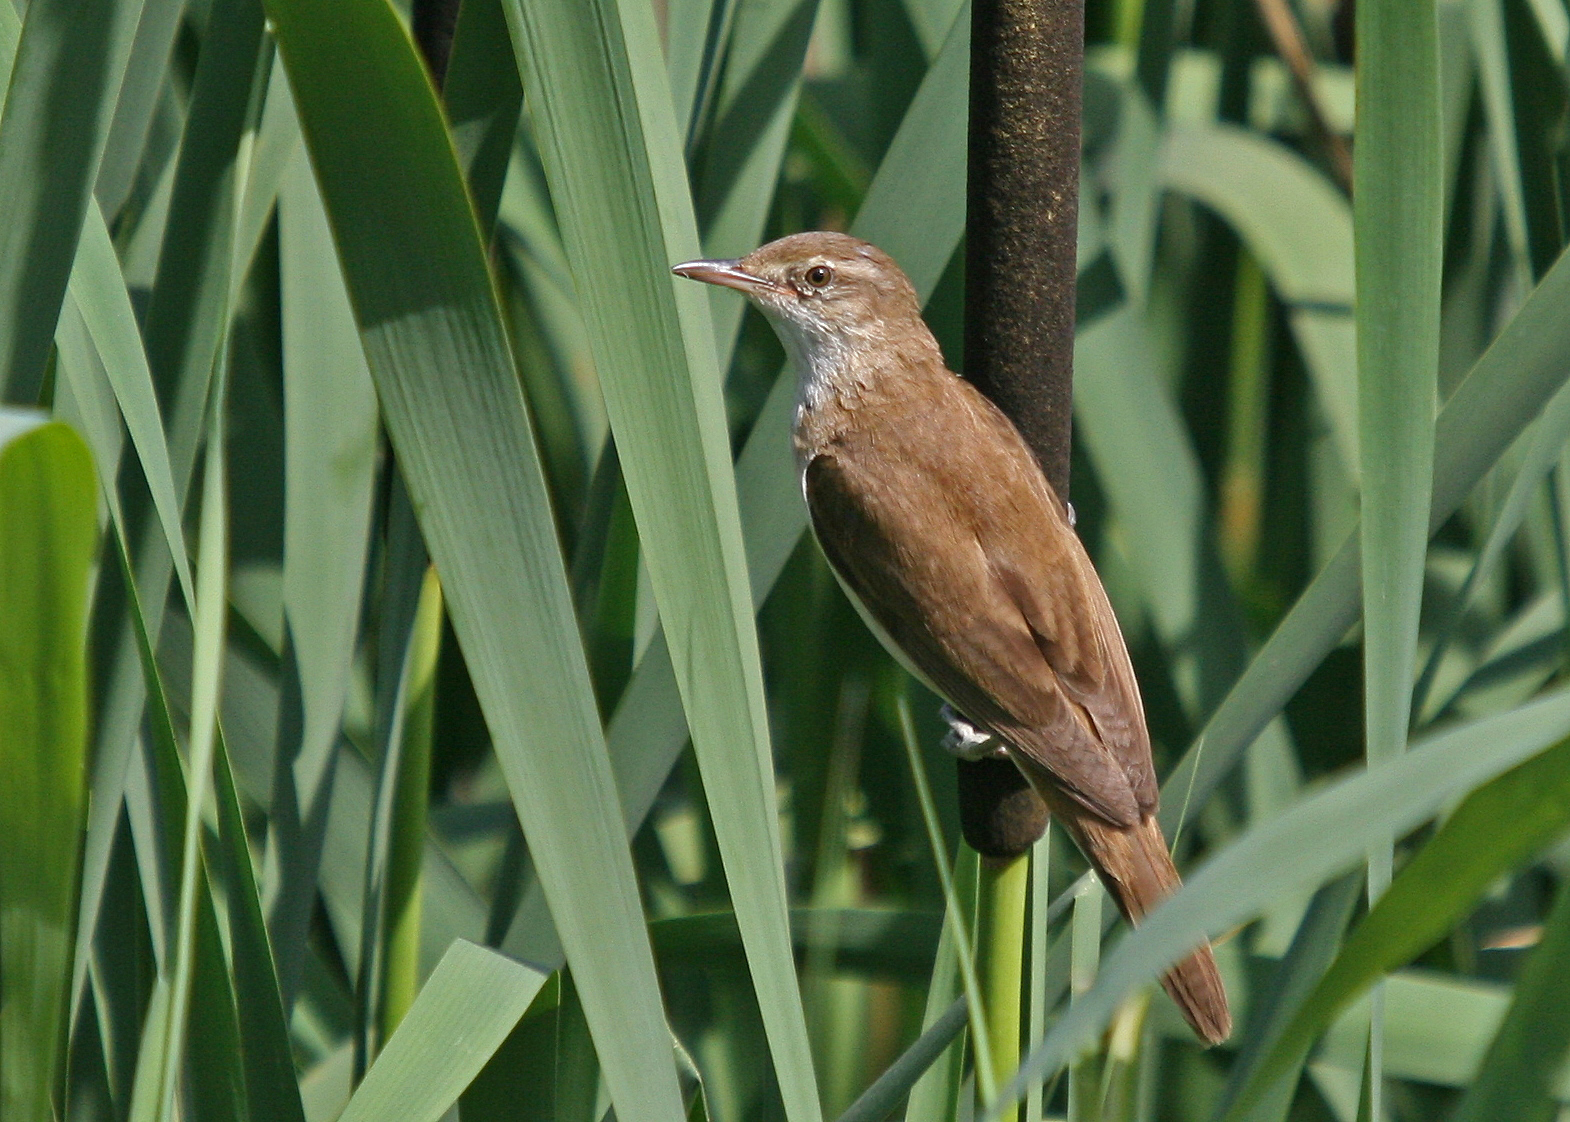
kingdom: Animalia
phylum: Chordata
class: Aves
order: Passeriformes
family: Acrocephalidae
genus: Acrocephalus
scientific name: Acrocephalus arundinaceus
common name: Great reed warbler
